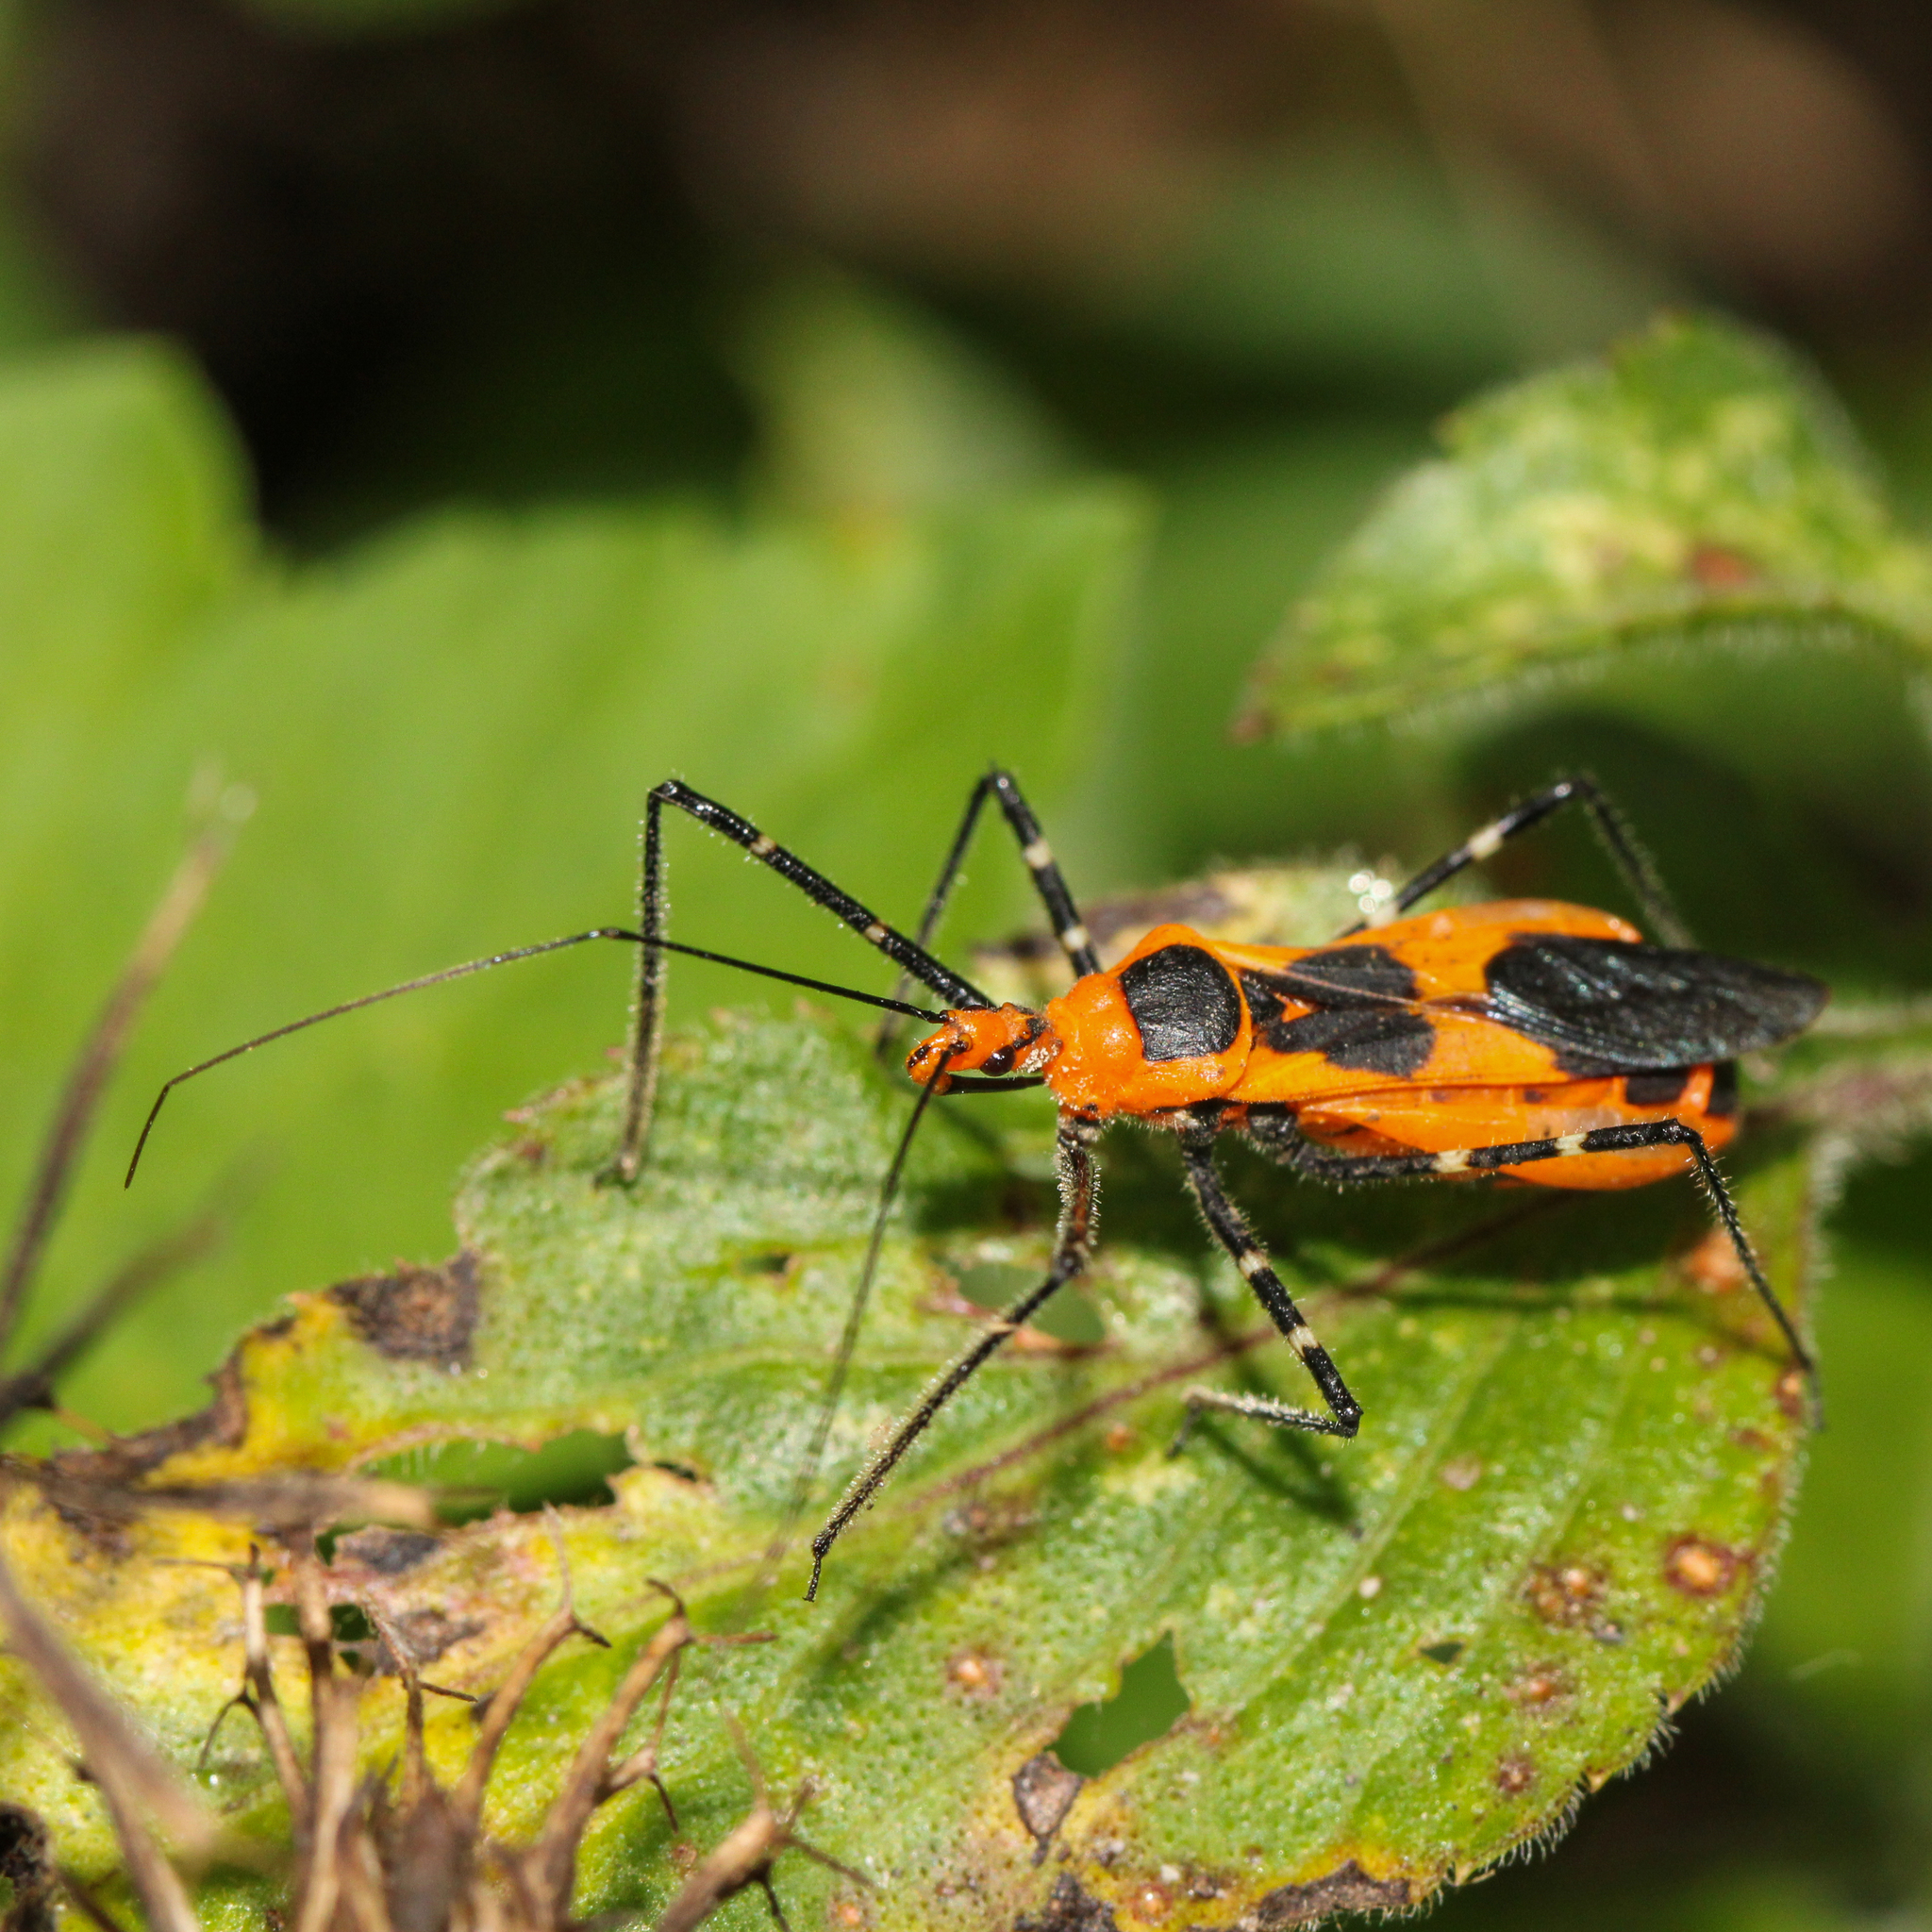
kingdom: Animalia
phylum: Arthropoda
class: Insecta
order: Hemiptera
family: Reduviidae
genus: Zelus
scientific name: Zelus longipes
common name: Milkweed assassin bug
